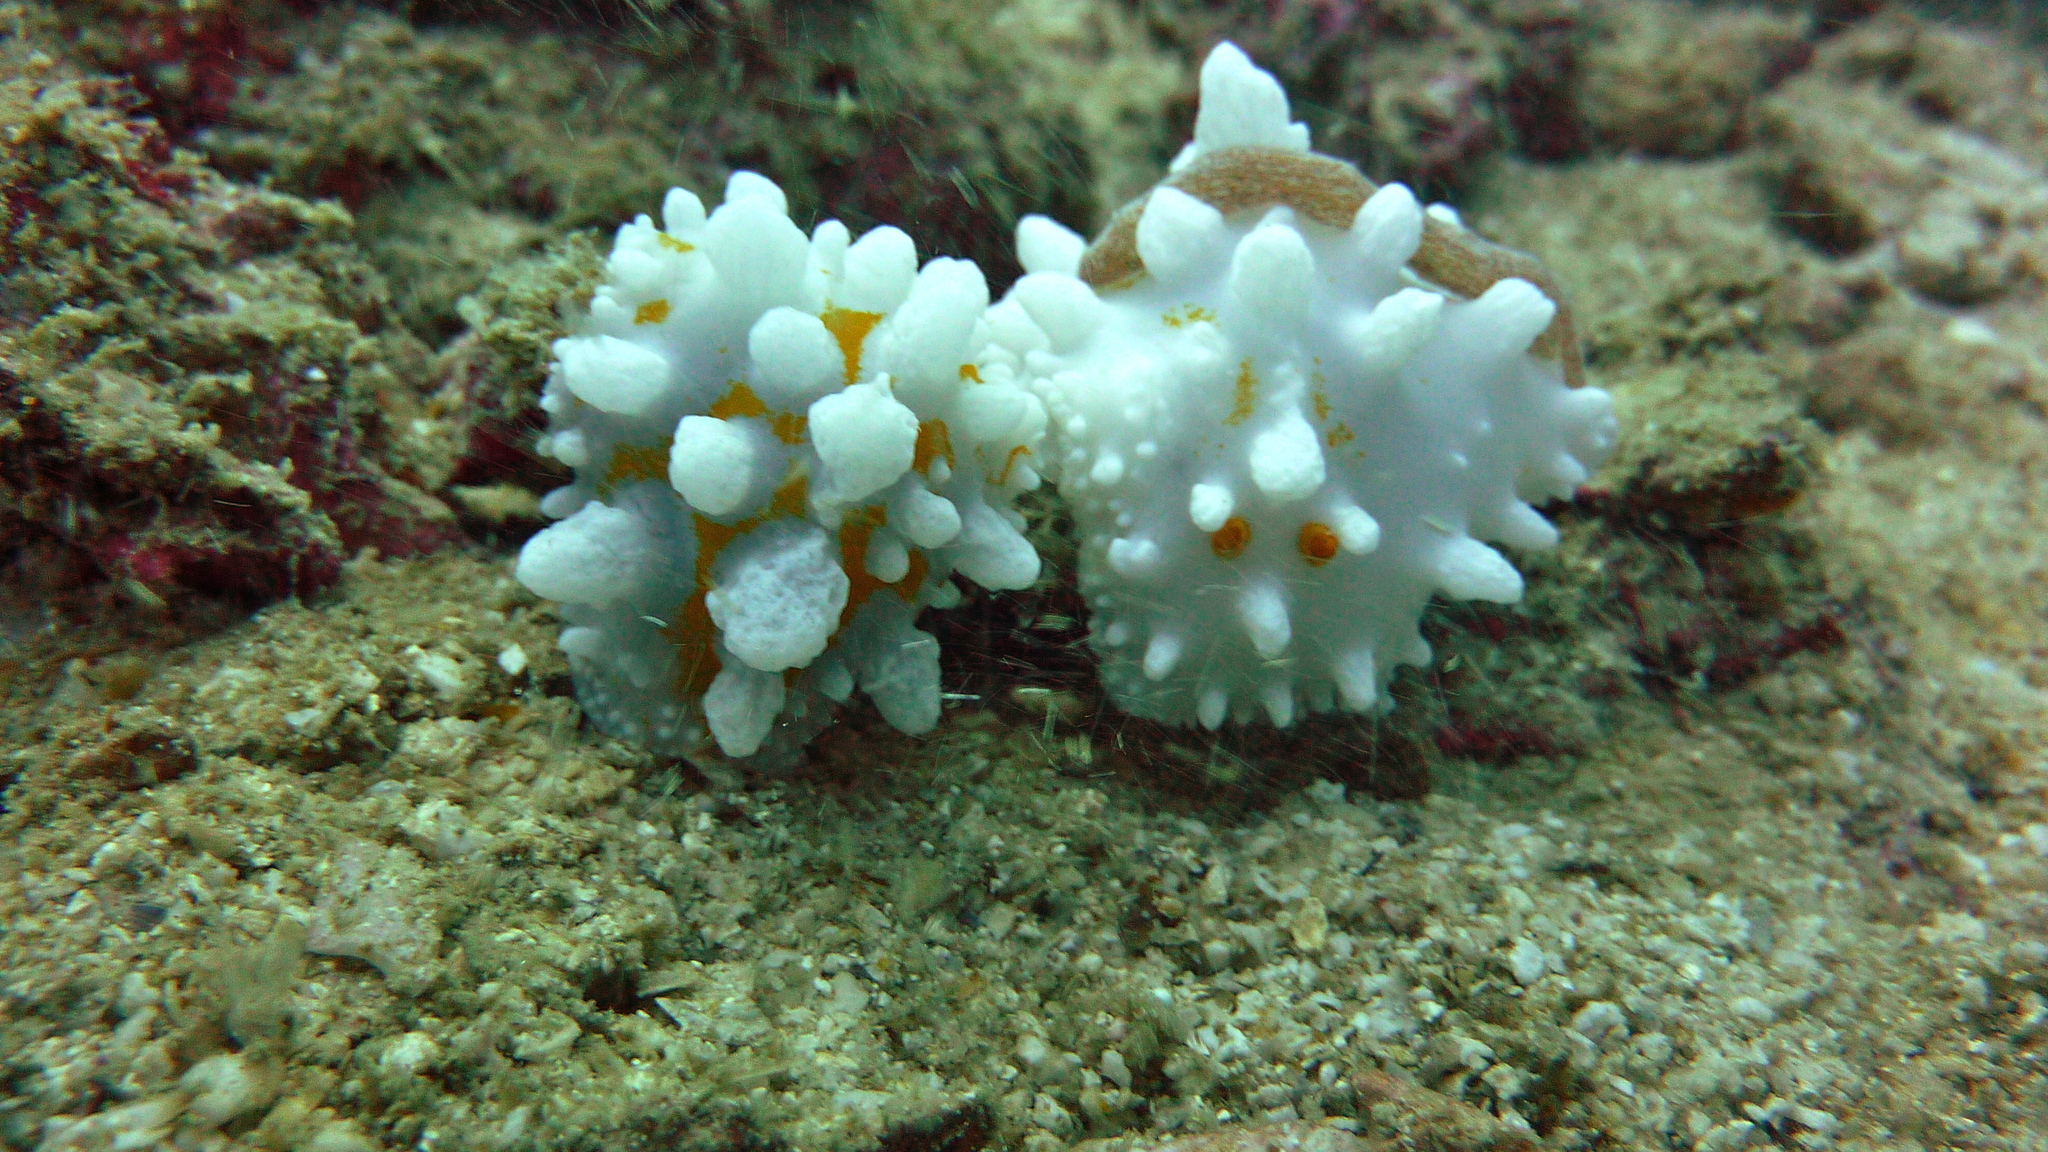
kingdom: Animalia
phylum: Mollusca
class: Gastropoda
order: Nudibranchia
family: Phyllidiidae
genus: Phyllidia
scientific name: Phyllidia ocellata
